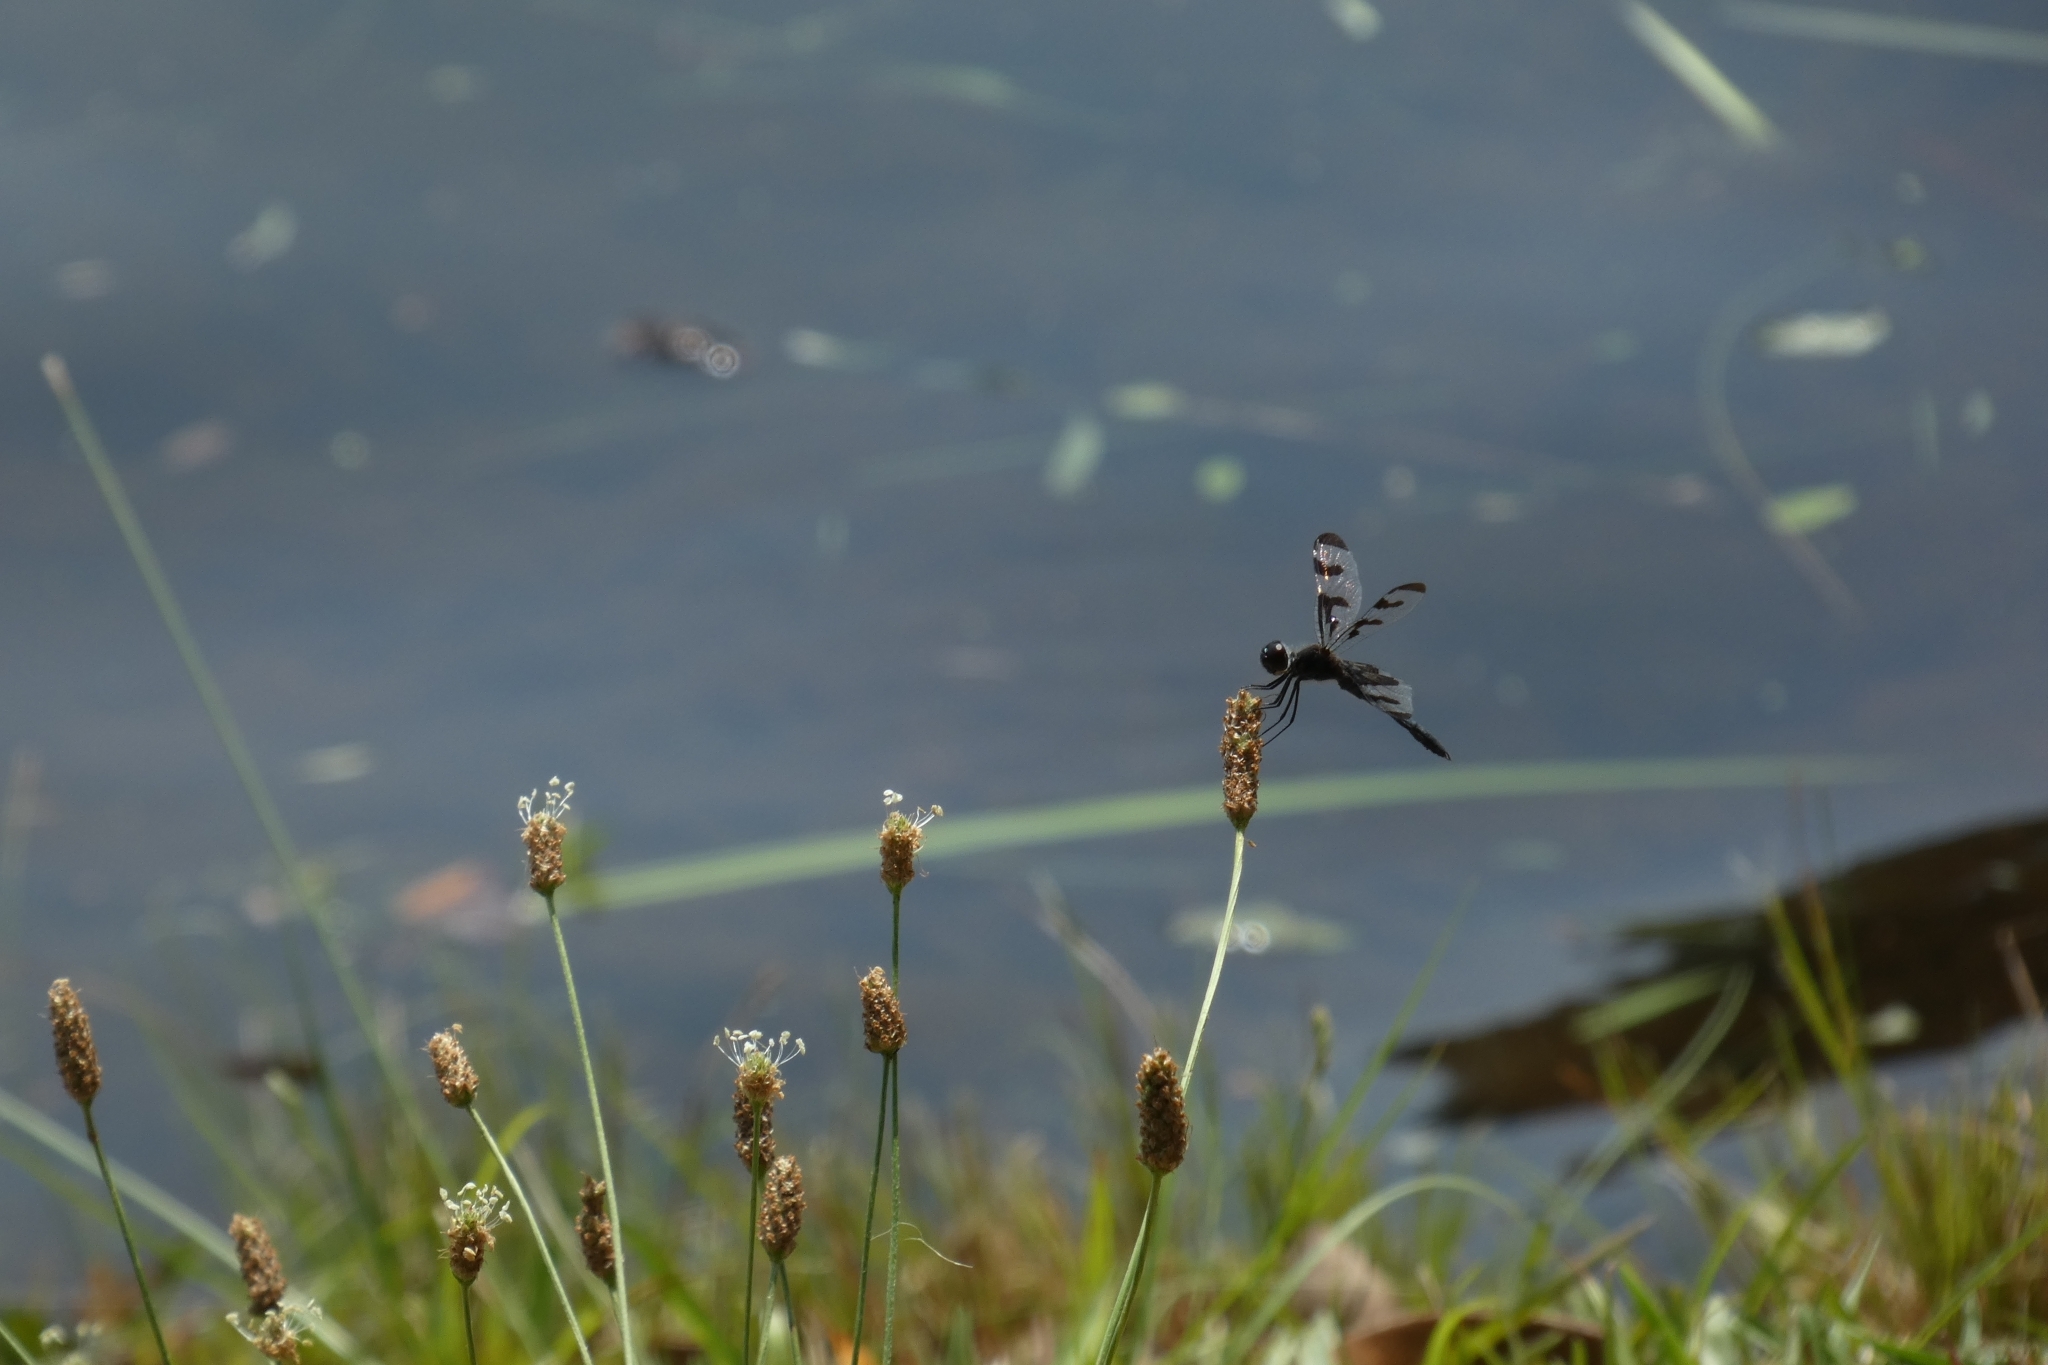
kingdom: Animalia
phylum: Arthropoda
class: Insecta
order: Odonata
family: Libellulidae
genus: Celithemis
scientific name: Celithemis fasciata
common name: Banded pennant
